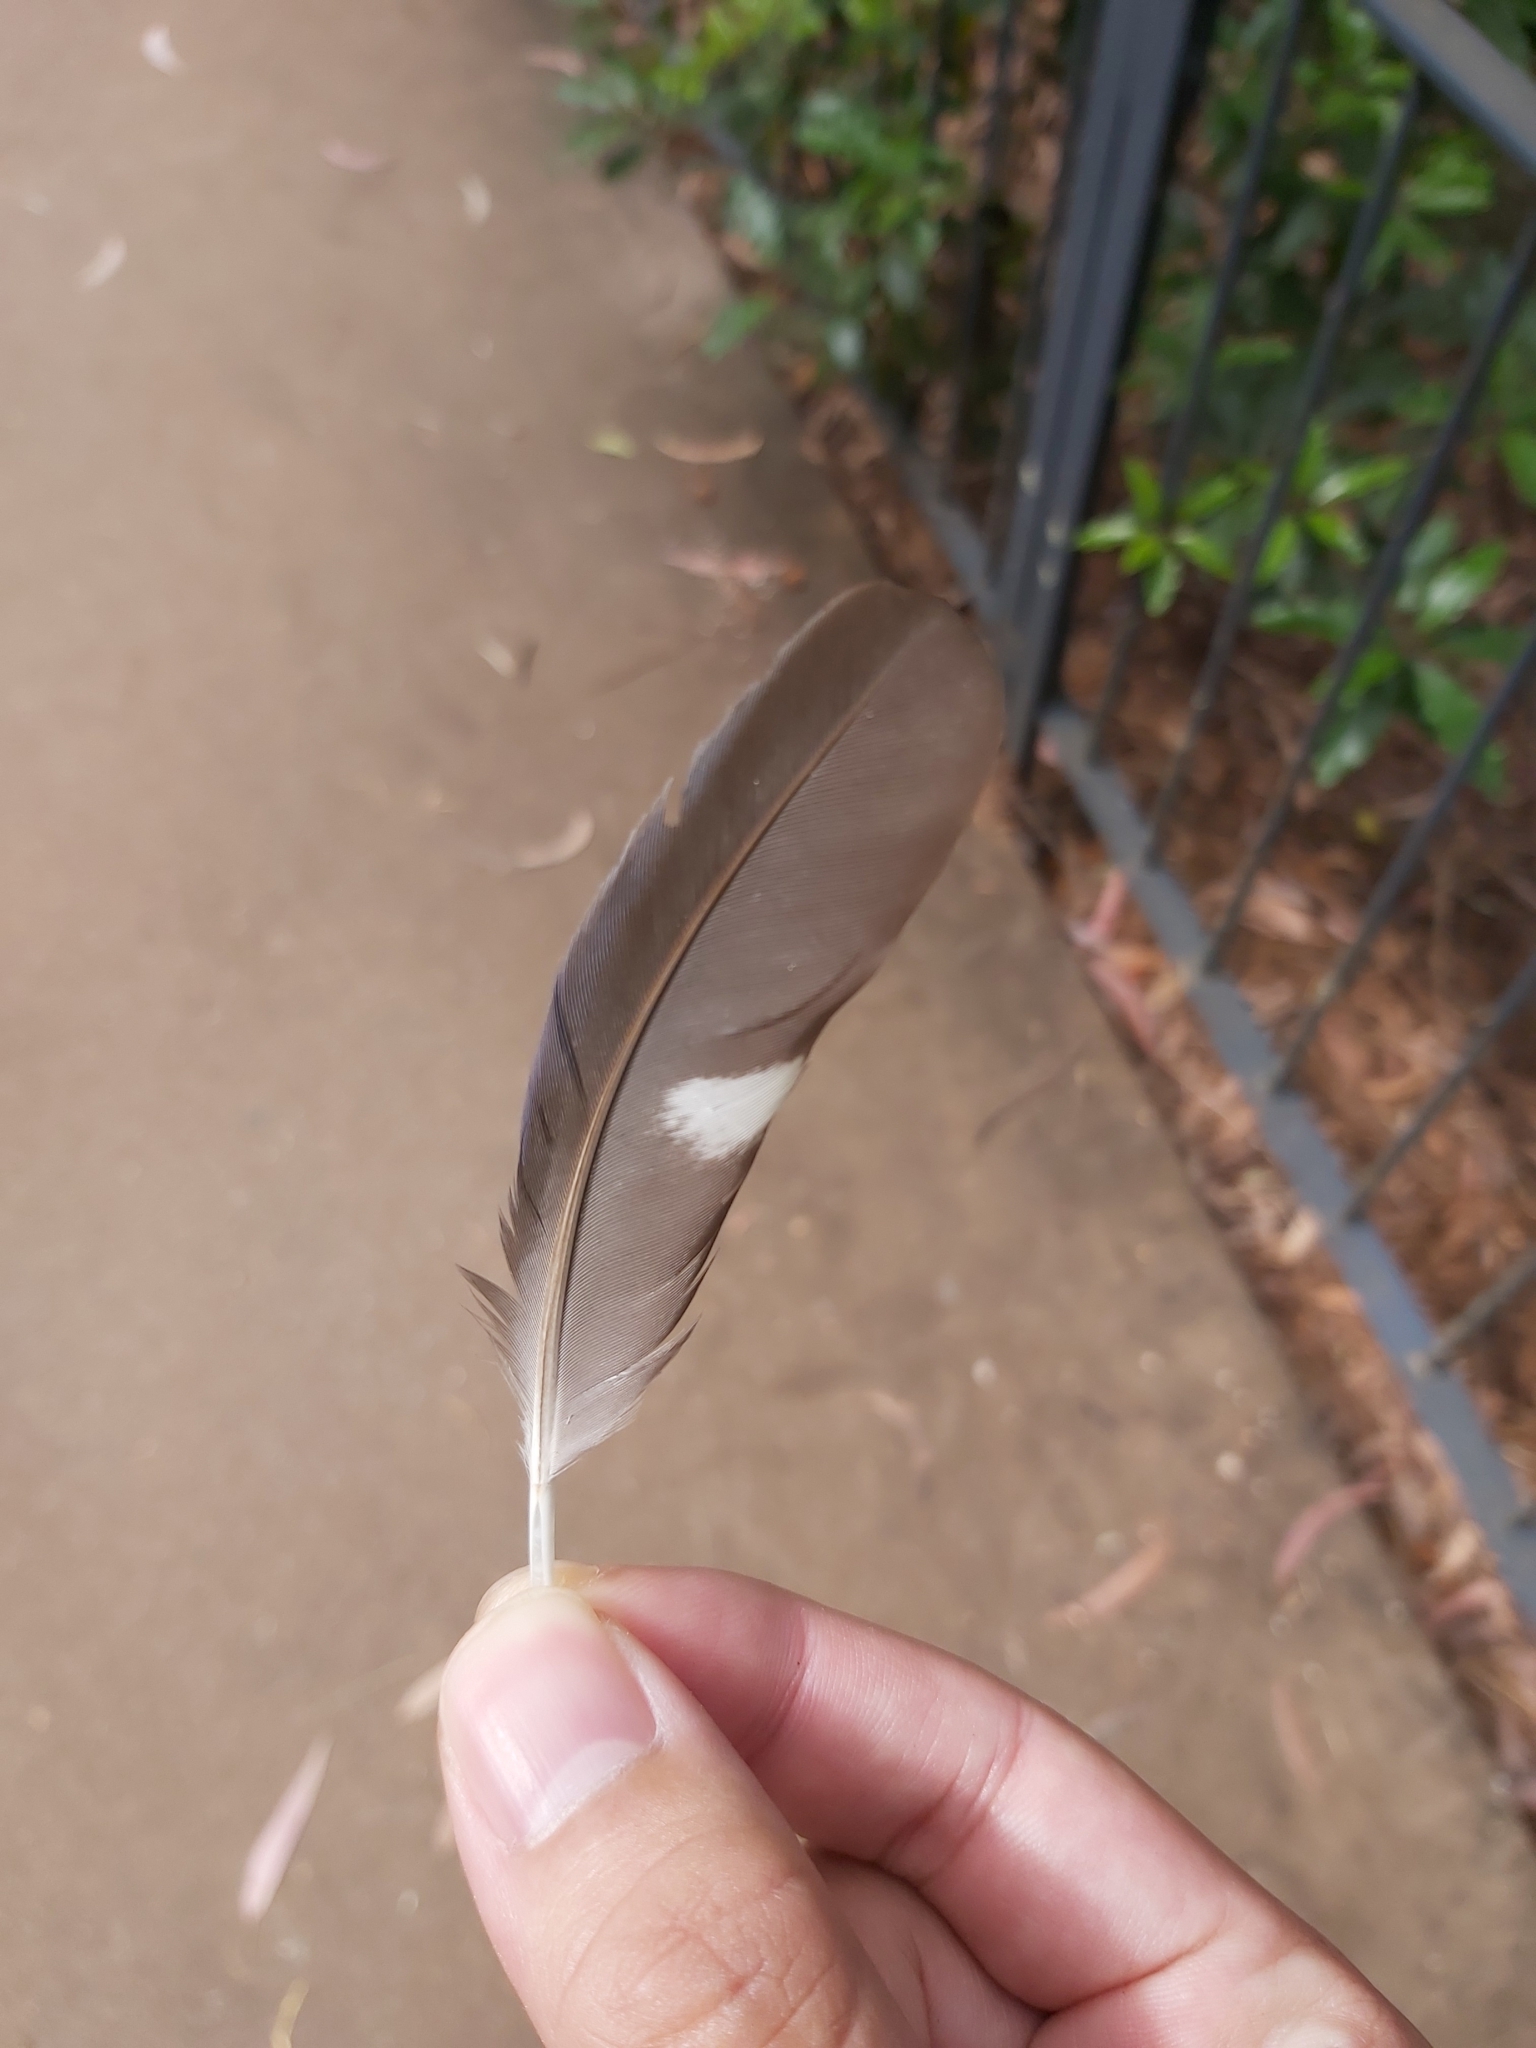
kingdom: Animalia
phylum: Chordata
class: Aves
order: Psittaciformes
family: Psittacidae
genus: Platycercus
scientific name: Platycercus elegans
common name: Crimson rosella
